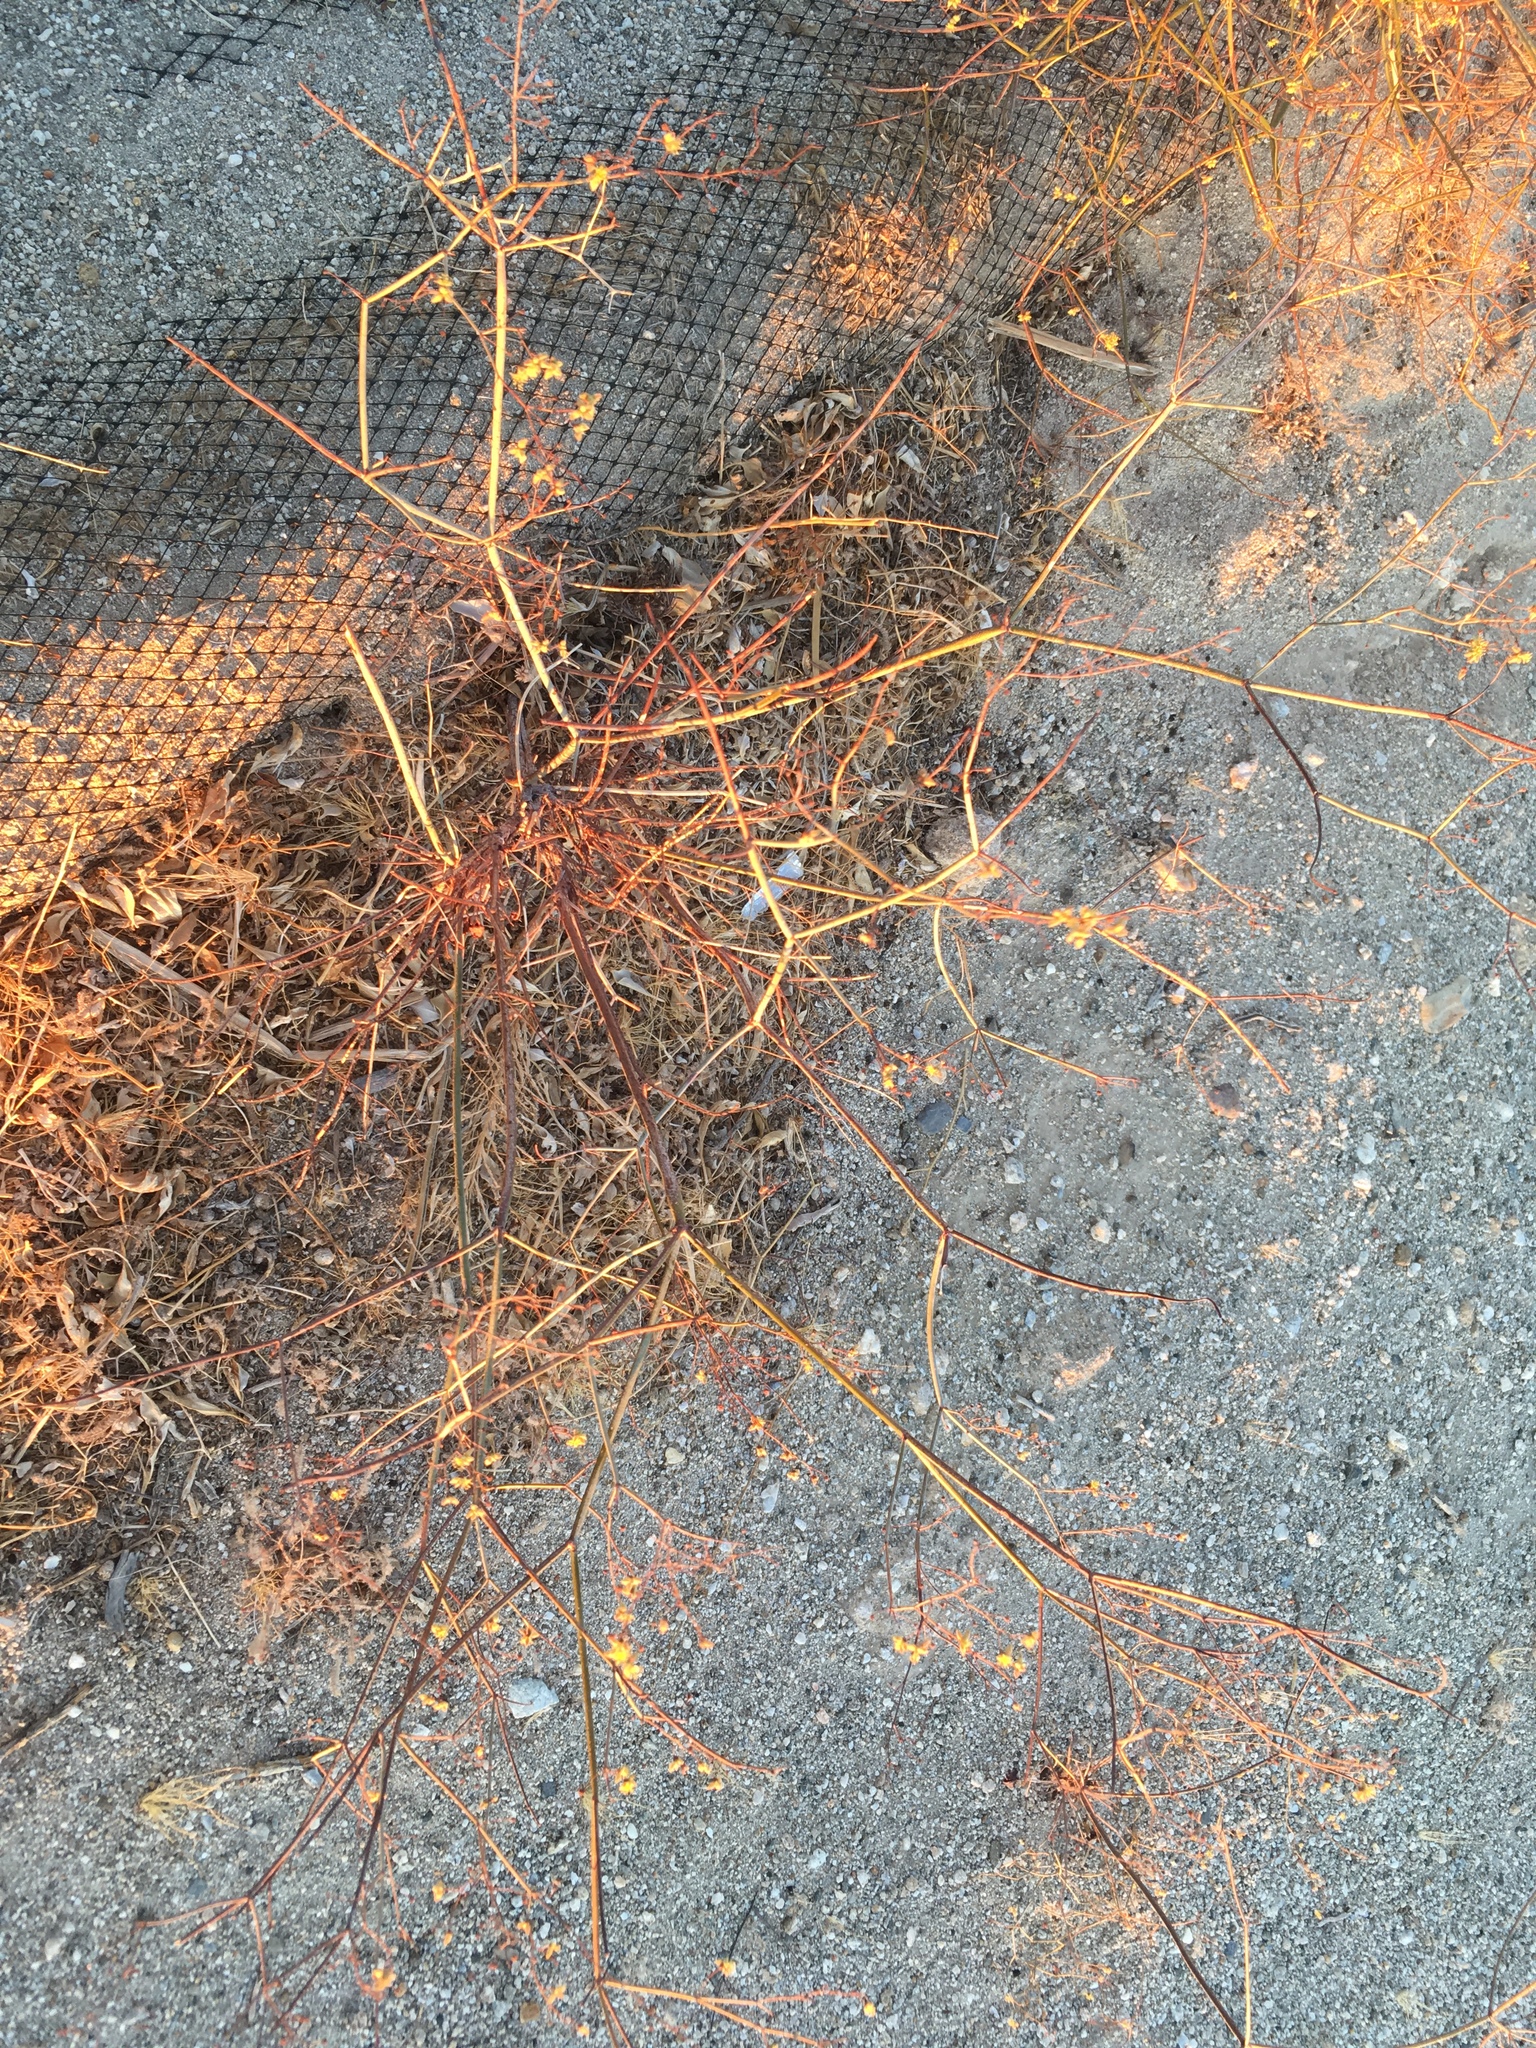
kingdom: Plantae
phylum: Tracheophyta
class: Magnoliopsida
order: Caryophyllales
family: Polygonaceae
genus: Eriogonum
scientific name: Eriogonum inflatum
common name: Desert trumpet
